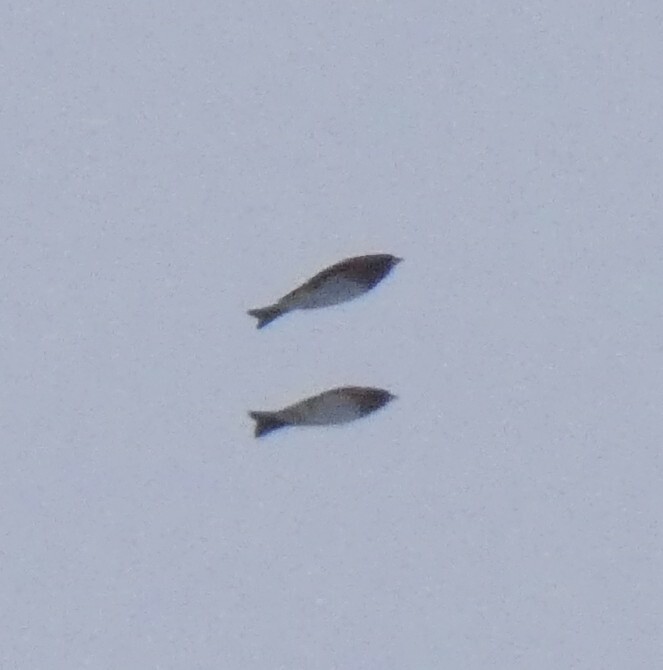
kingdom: Animalia
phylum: Chordata
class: Aves
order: Passeriformes
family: Fringillidae
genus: Fringilla
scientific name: Fringilla montifringilla
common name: Brambling
